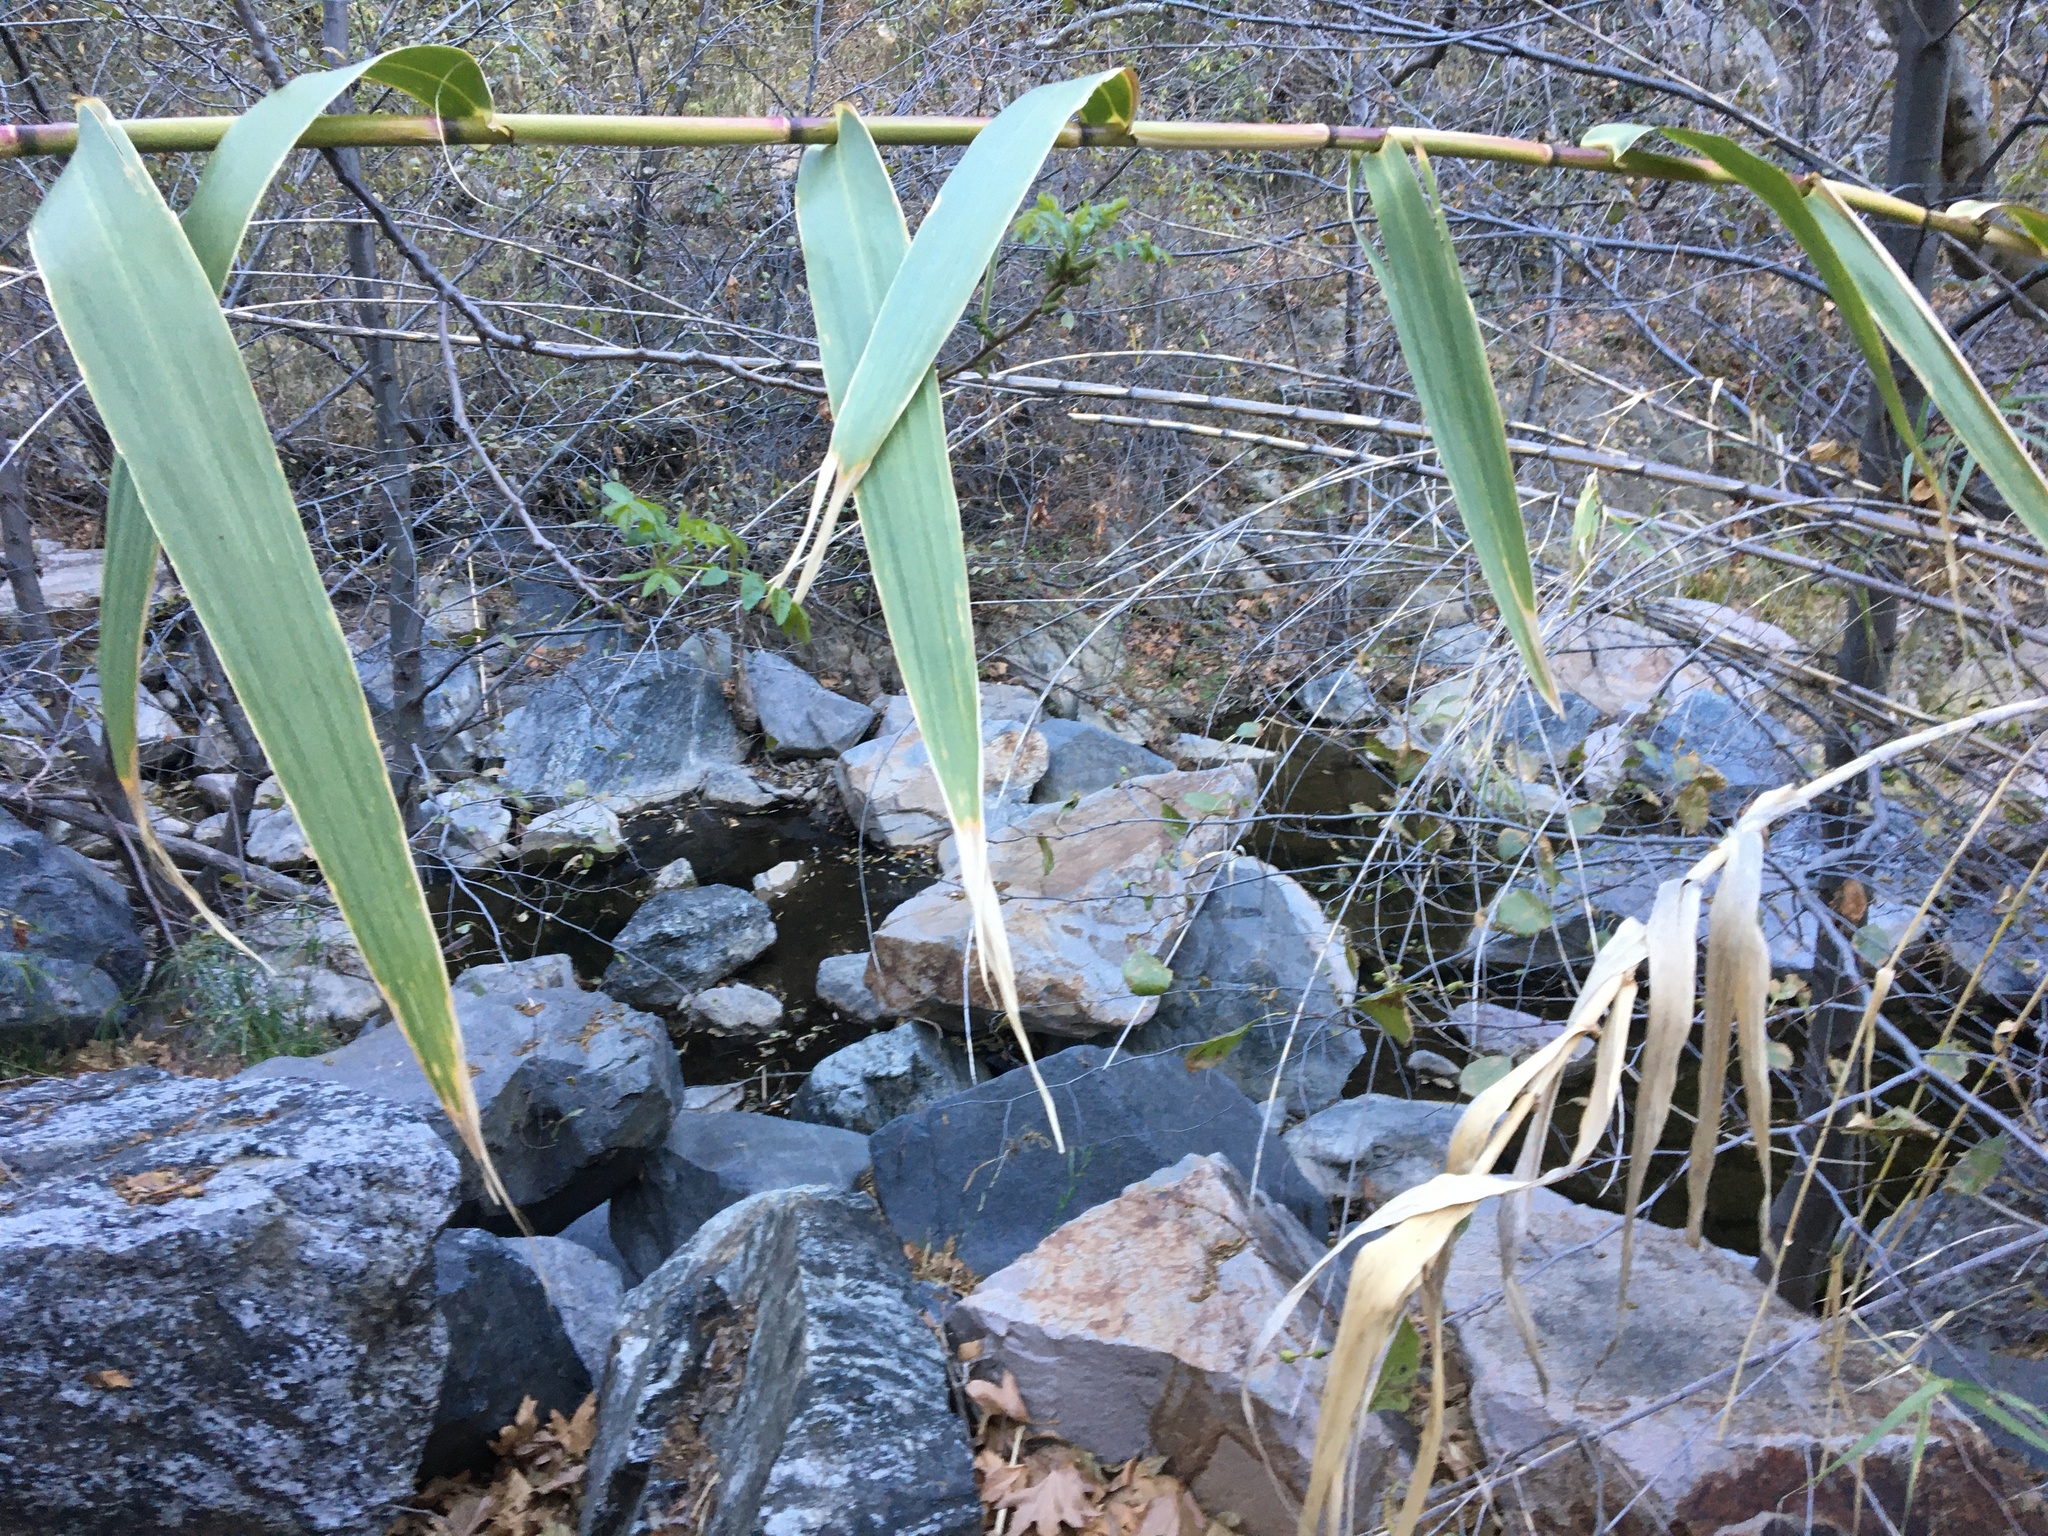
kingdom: Plantae
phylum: Tracheophyta
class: Liliopsida
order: Poales
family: Poaceae
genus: Arundo
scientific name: Arundo donax
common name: Giant reed
